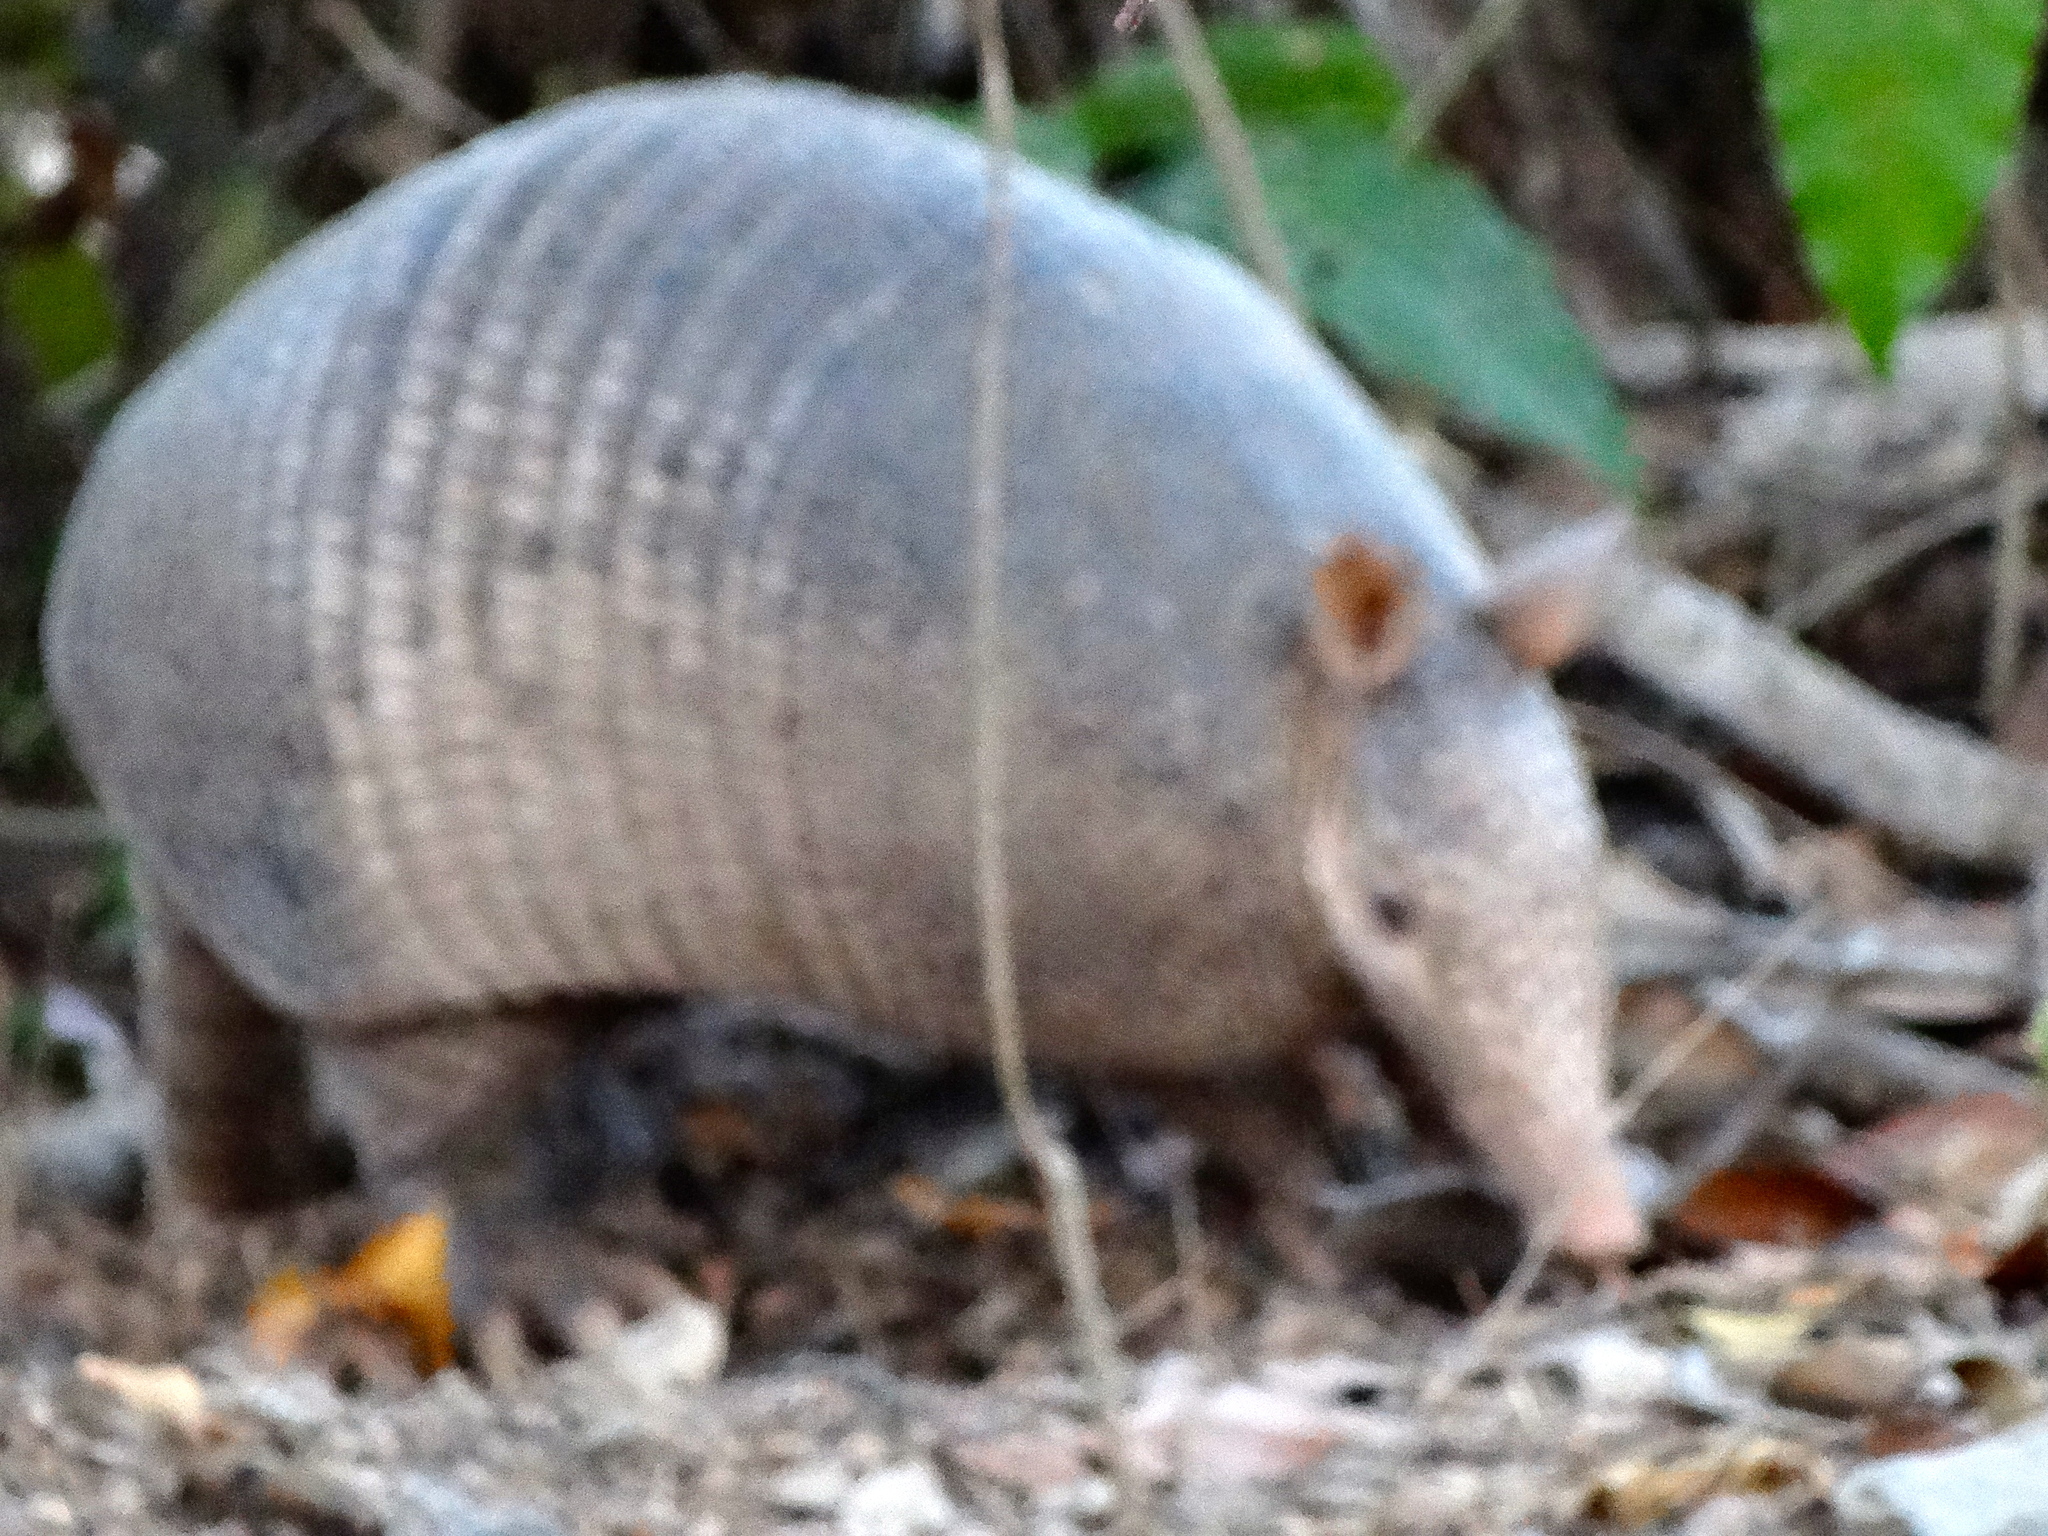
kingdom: Animalia
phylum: Chordata
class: Mammalia
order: Cingulata
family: Dasypodidae
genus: Dasypus
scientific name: Dasypus novemcinctus
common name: Nine-banded armadillo
